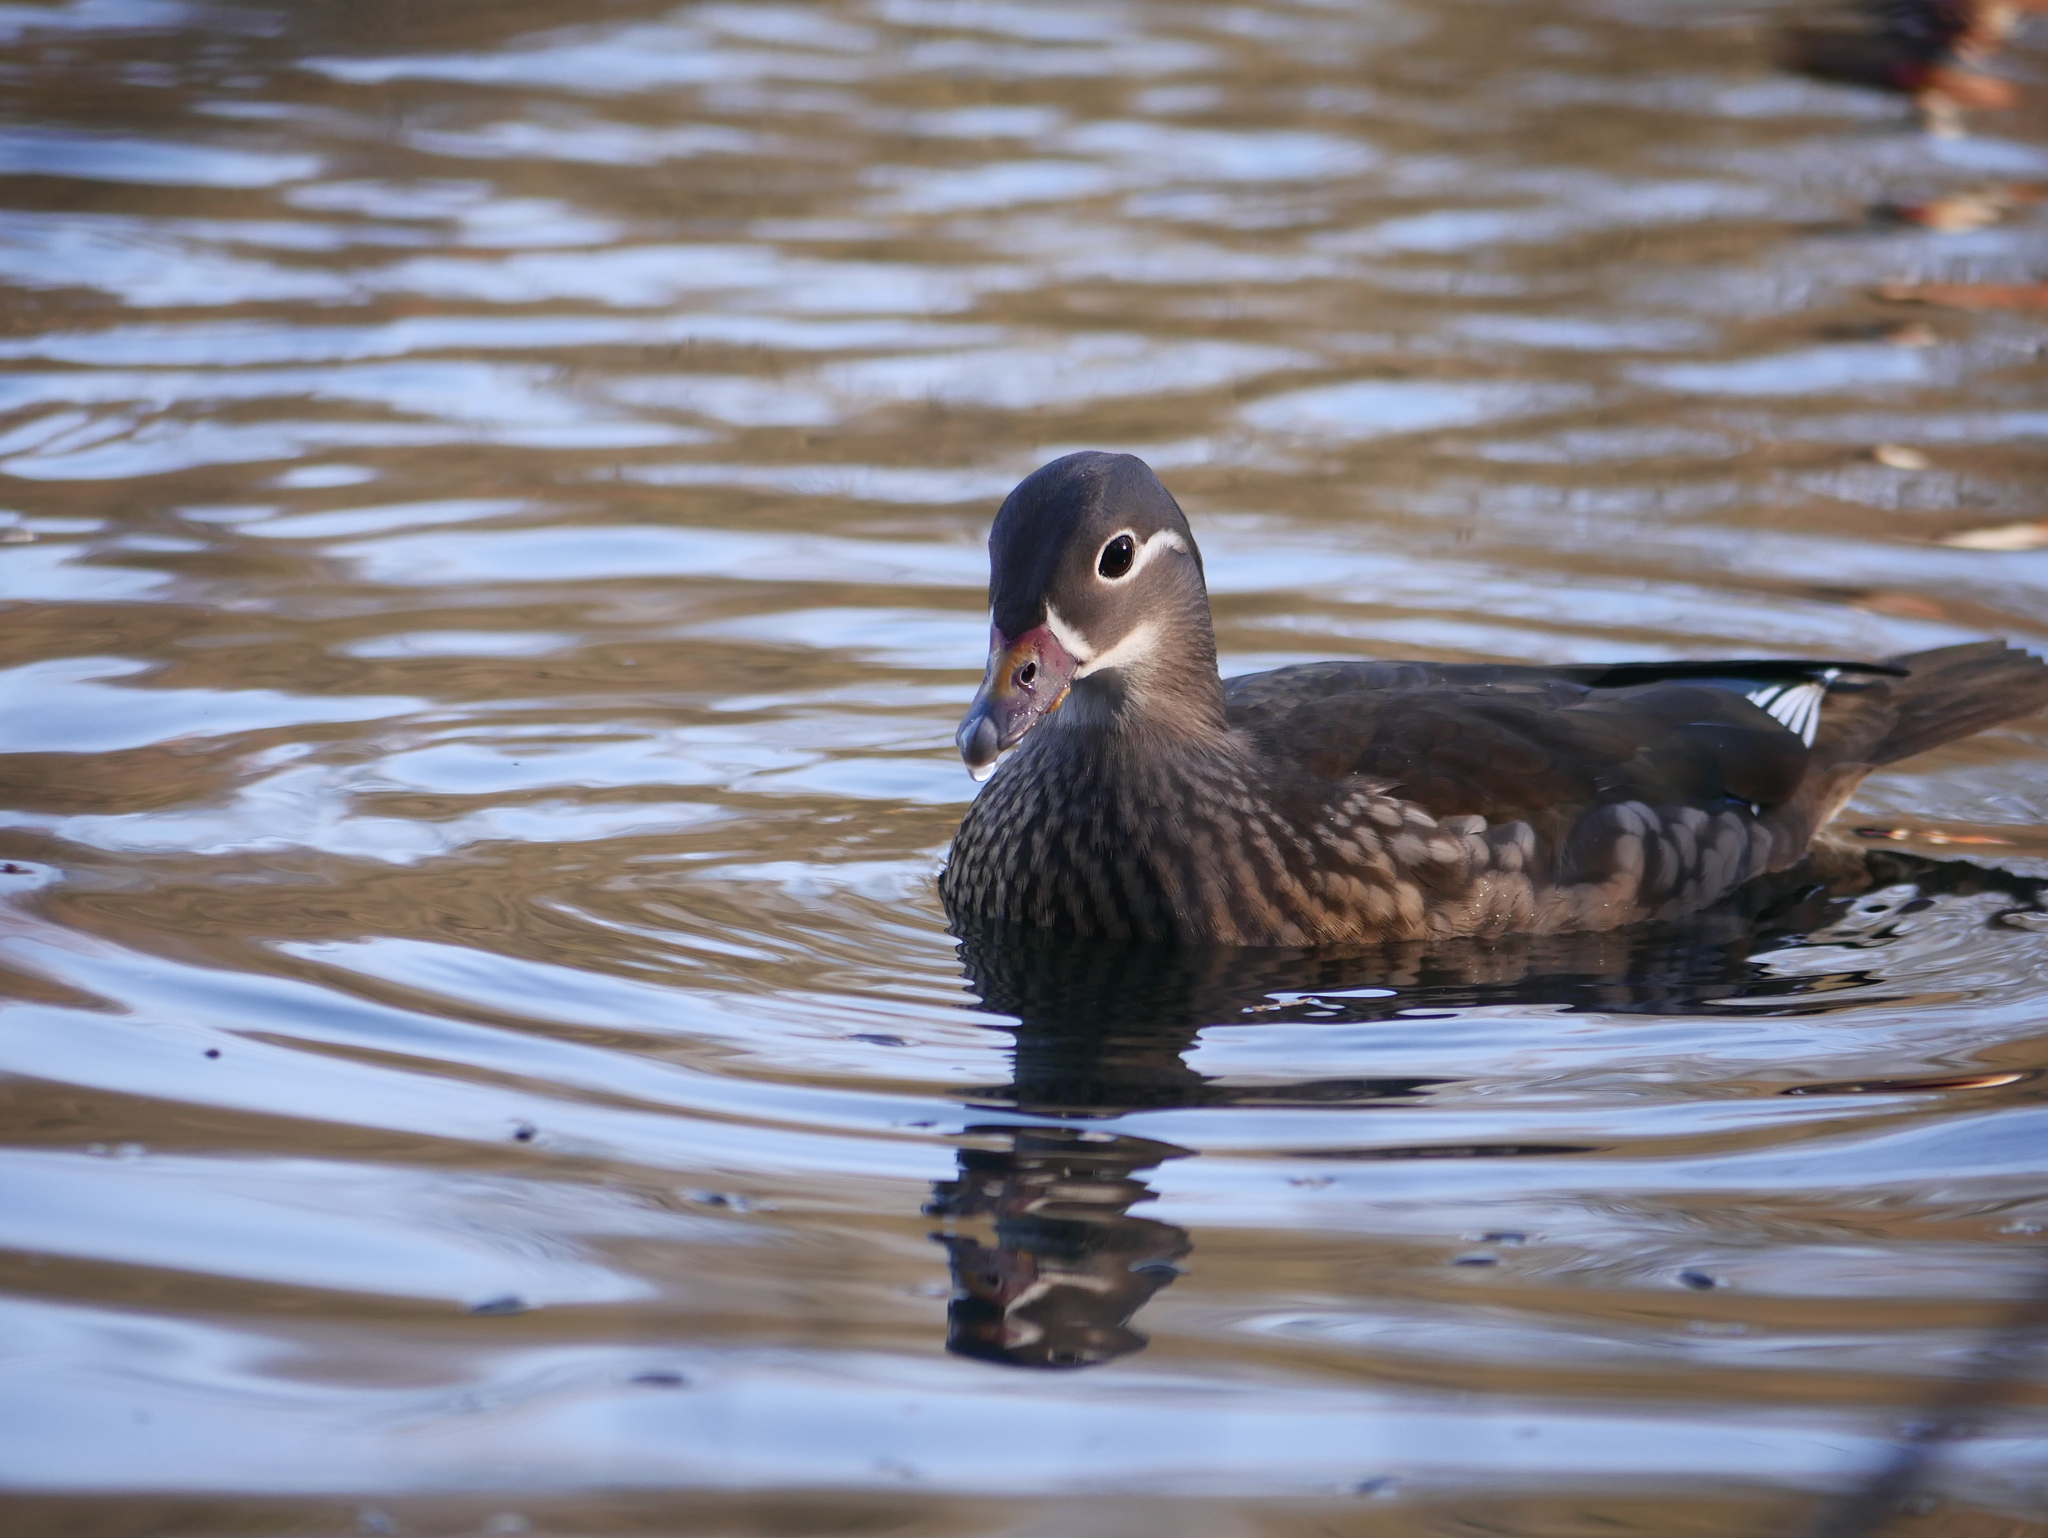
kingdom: Animalia
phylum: Chordata
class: Aves
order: Anseriformes
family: Anatidae
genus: Aix
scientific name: Aix galericulata
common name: Mandarin duck
